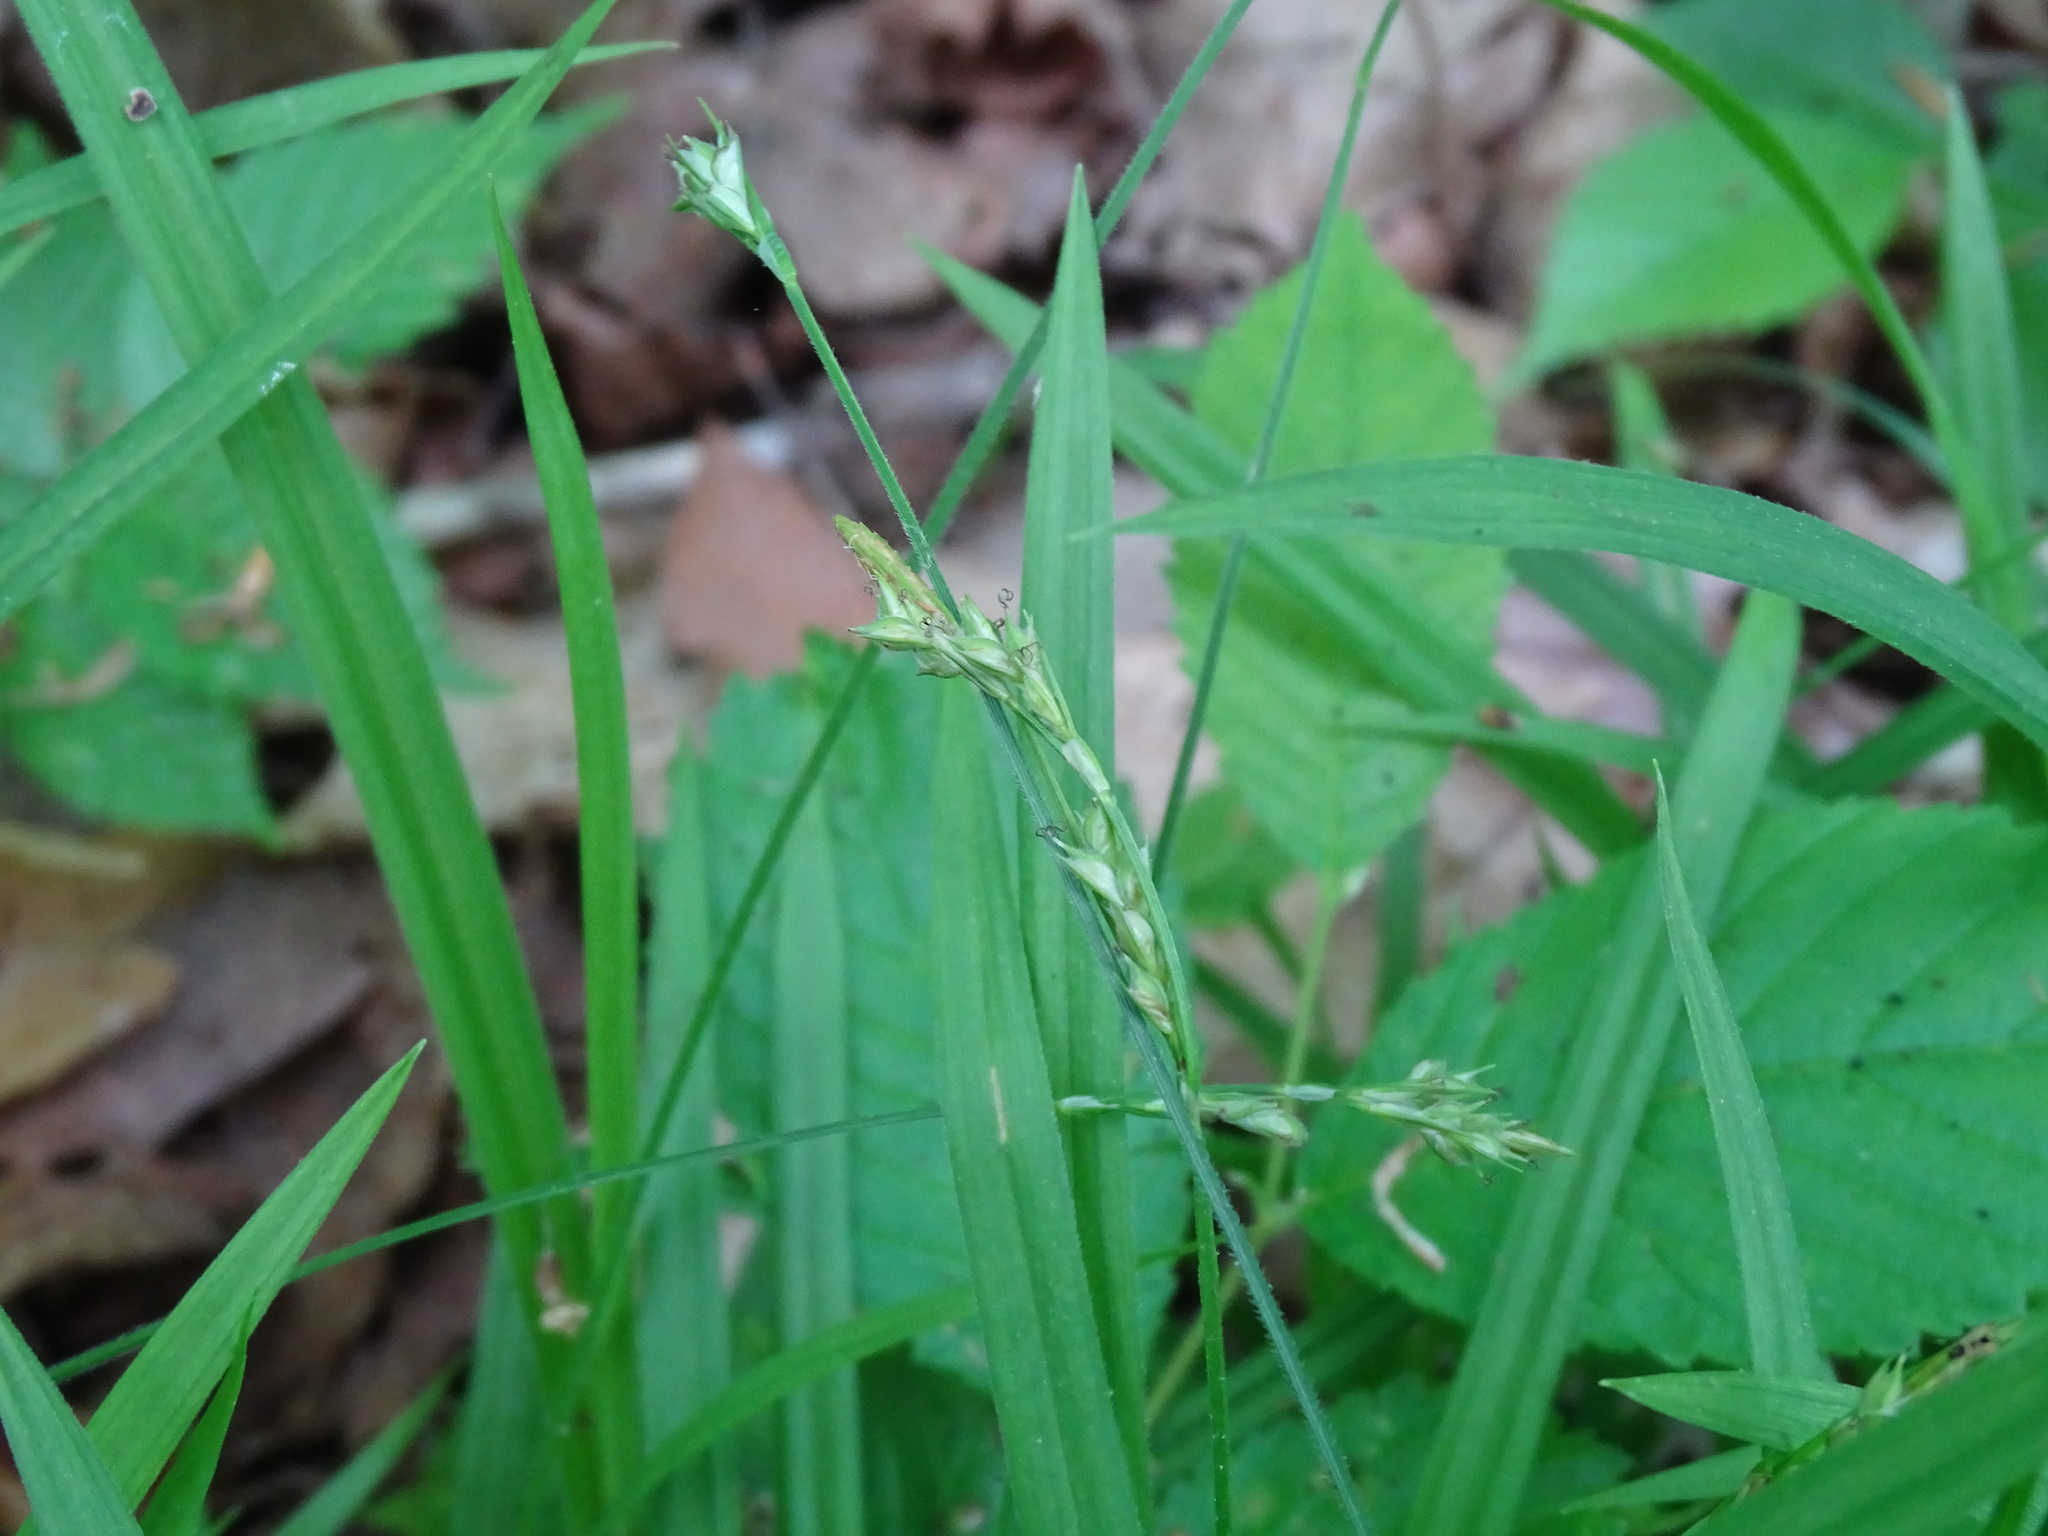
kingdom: Plantae
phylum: Tracheophyta
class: Liliopsida
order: Poales
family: Cyperaceae
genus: Carex
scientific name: Carex hirtifolia
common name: Hairy sedge
